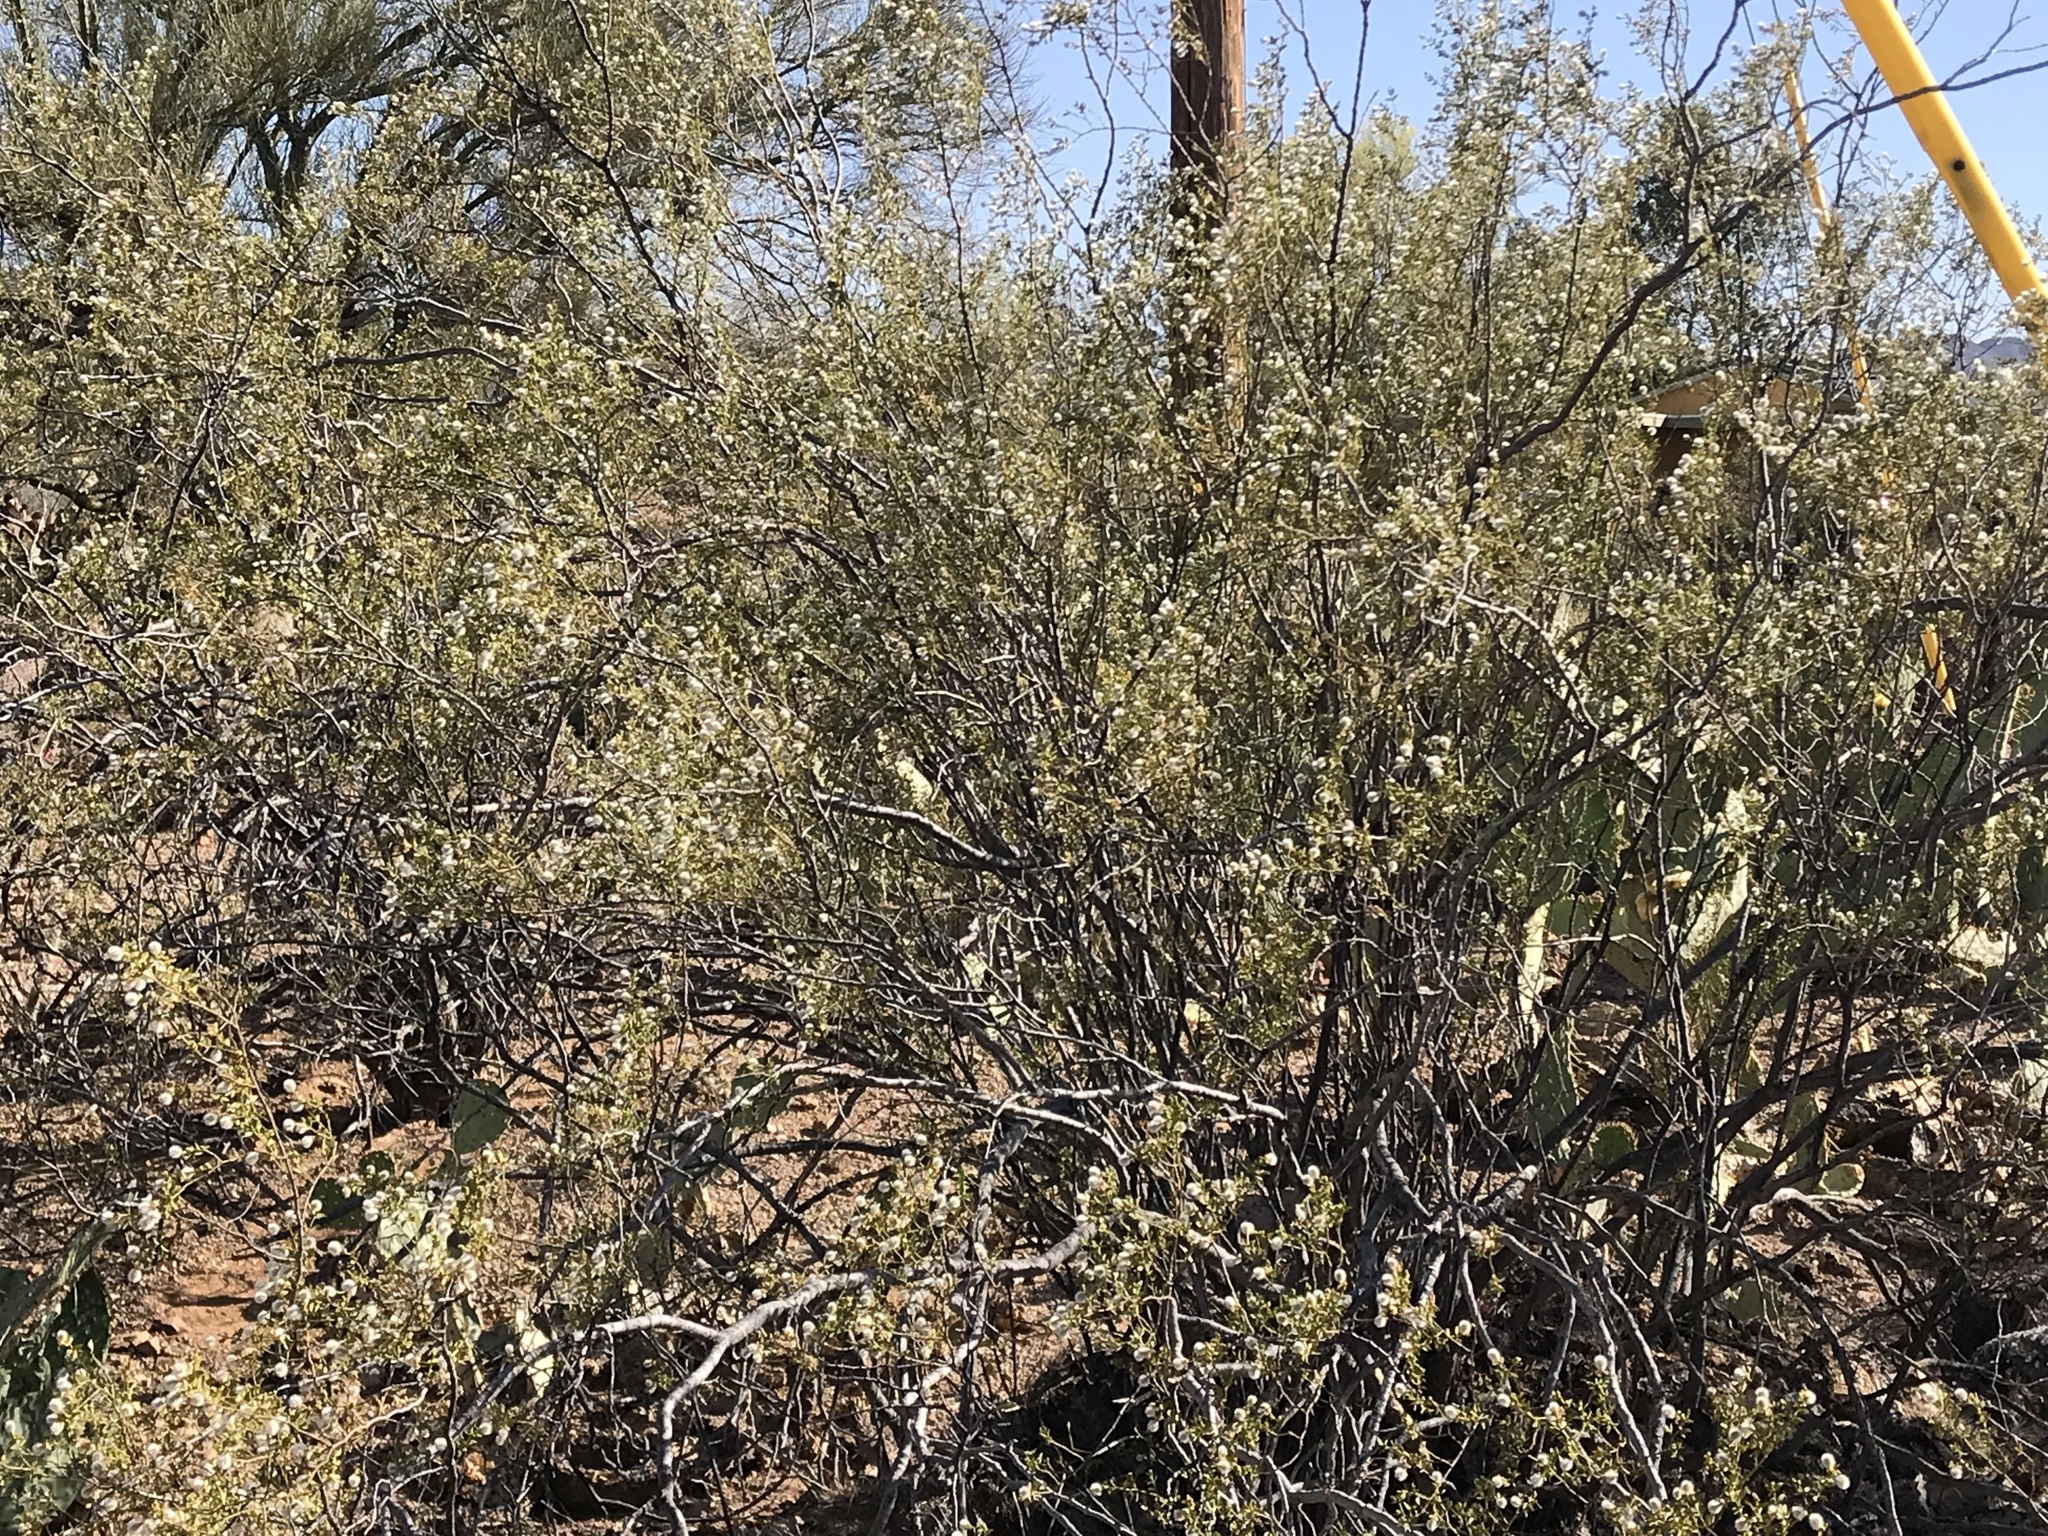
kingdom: Plantae
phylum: Tracheophyta
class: Magnoliopsida
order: Zygophyllales
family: Zygophyllaceae
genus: Larrea
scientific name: Larrea tridentata
